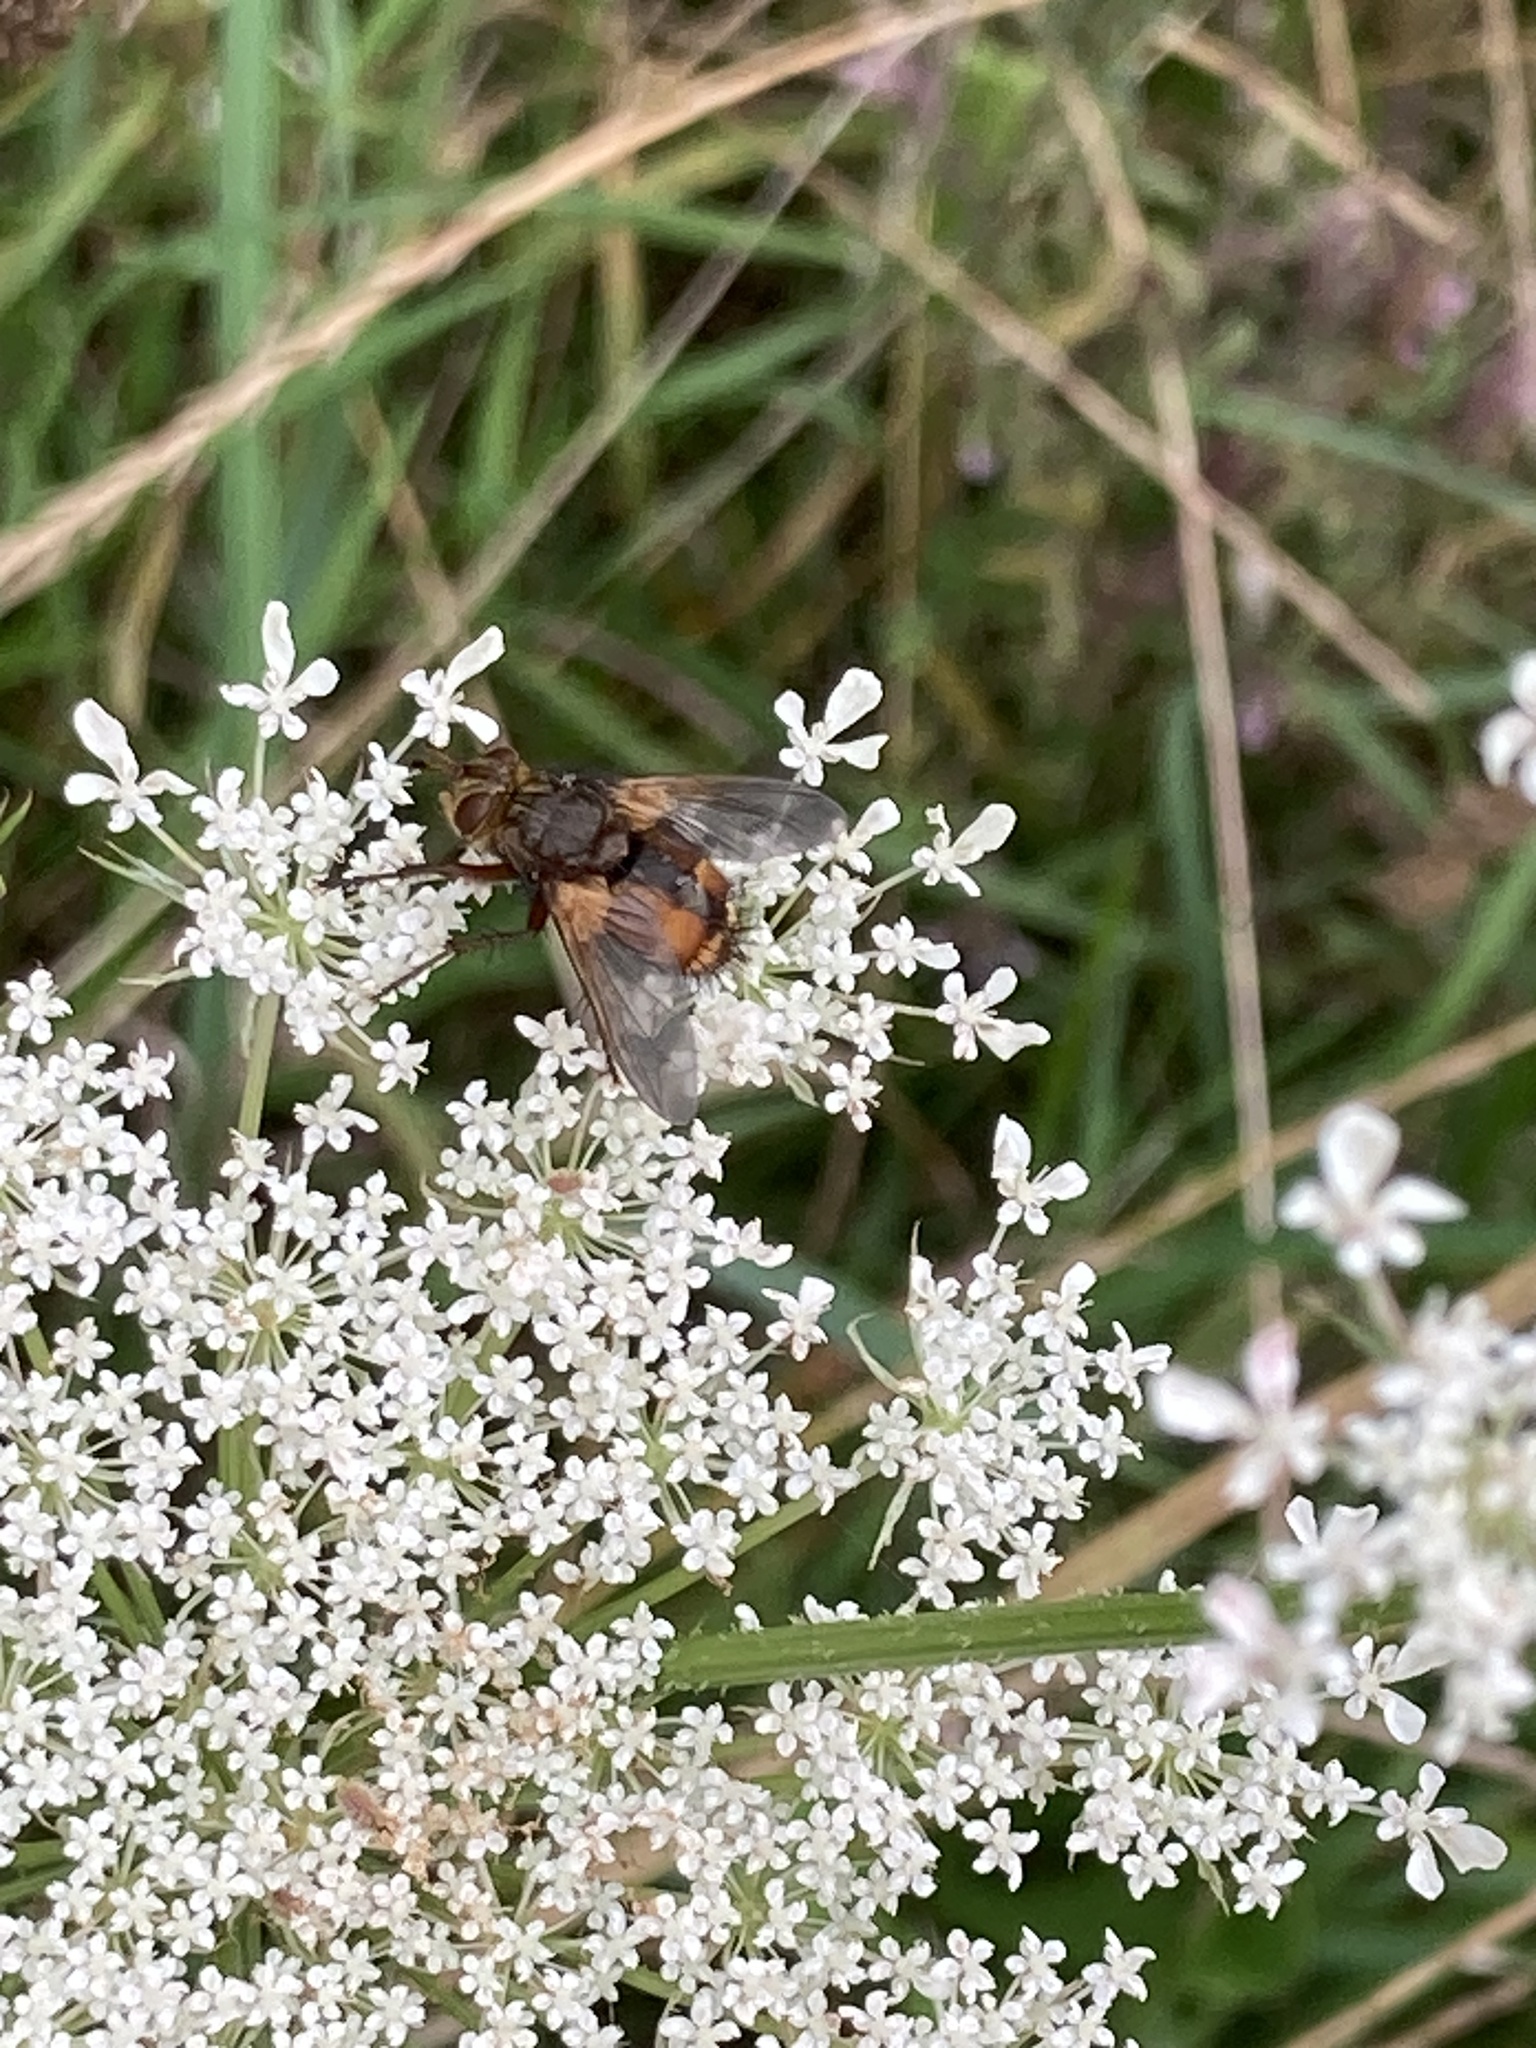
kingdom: Animalia
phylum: Arthropoda
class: Insecta
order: Diptera
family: Tachinidae
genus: Tachina
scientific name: Tachina fera
